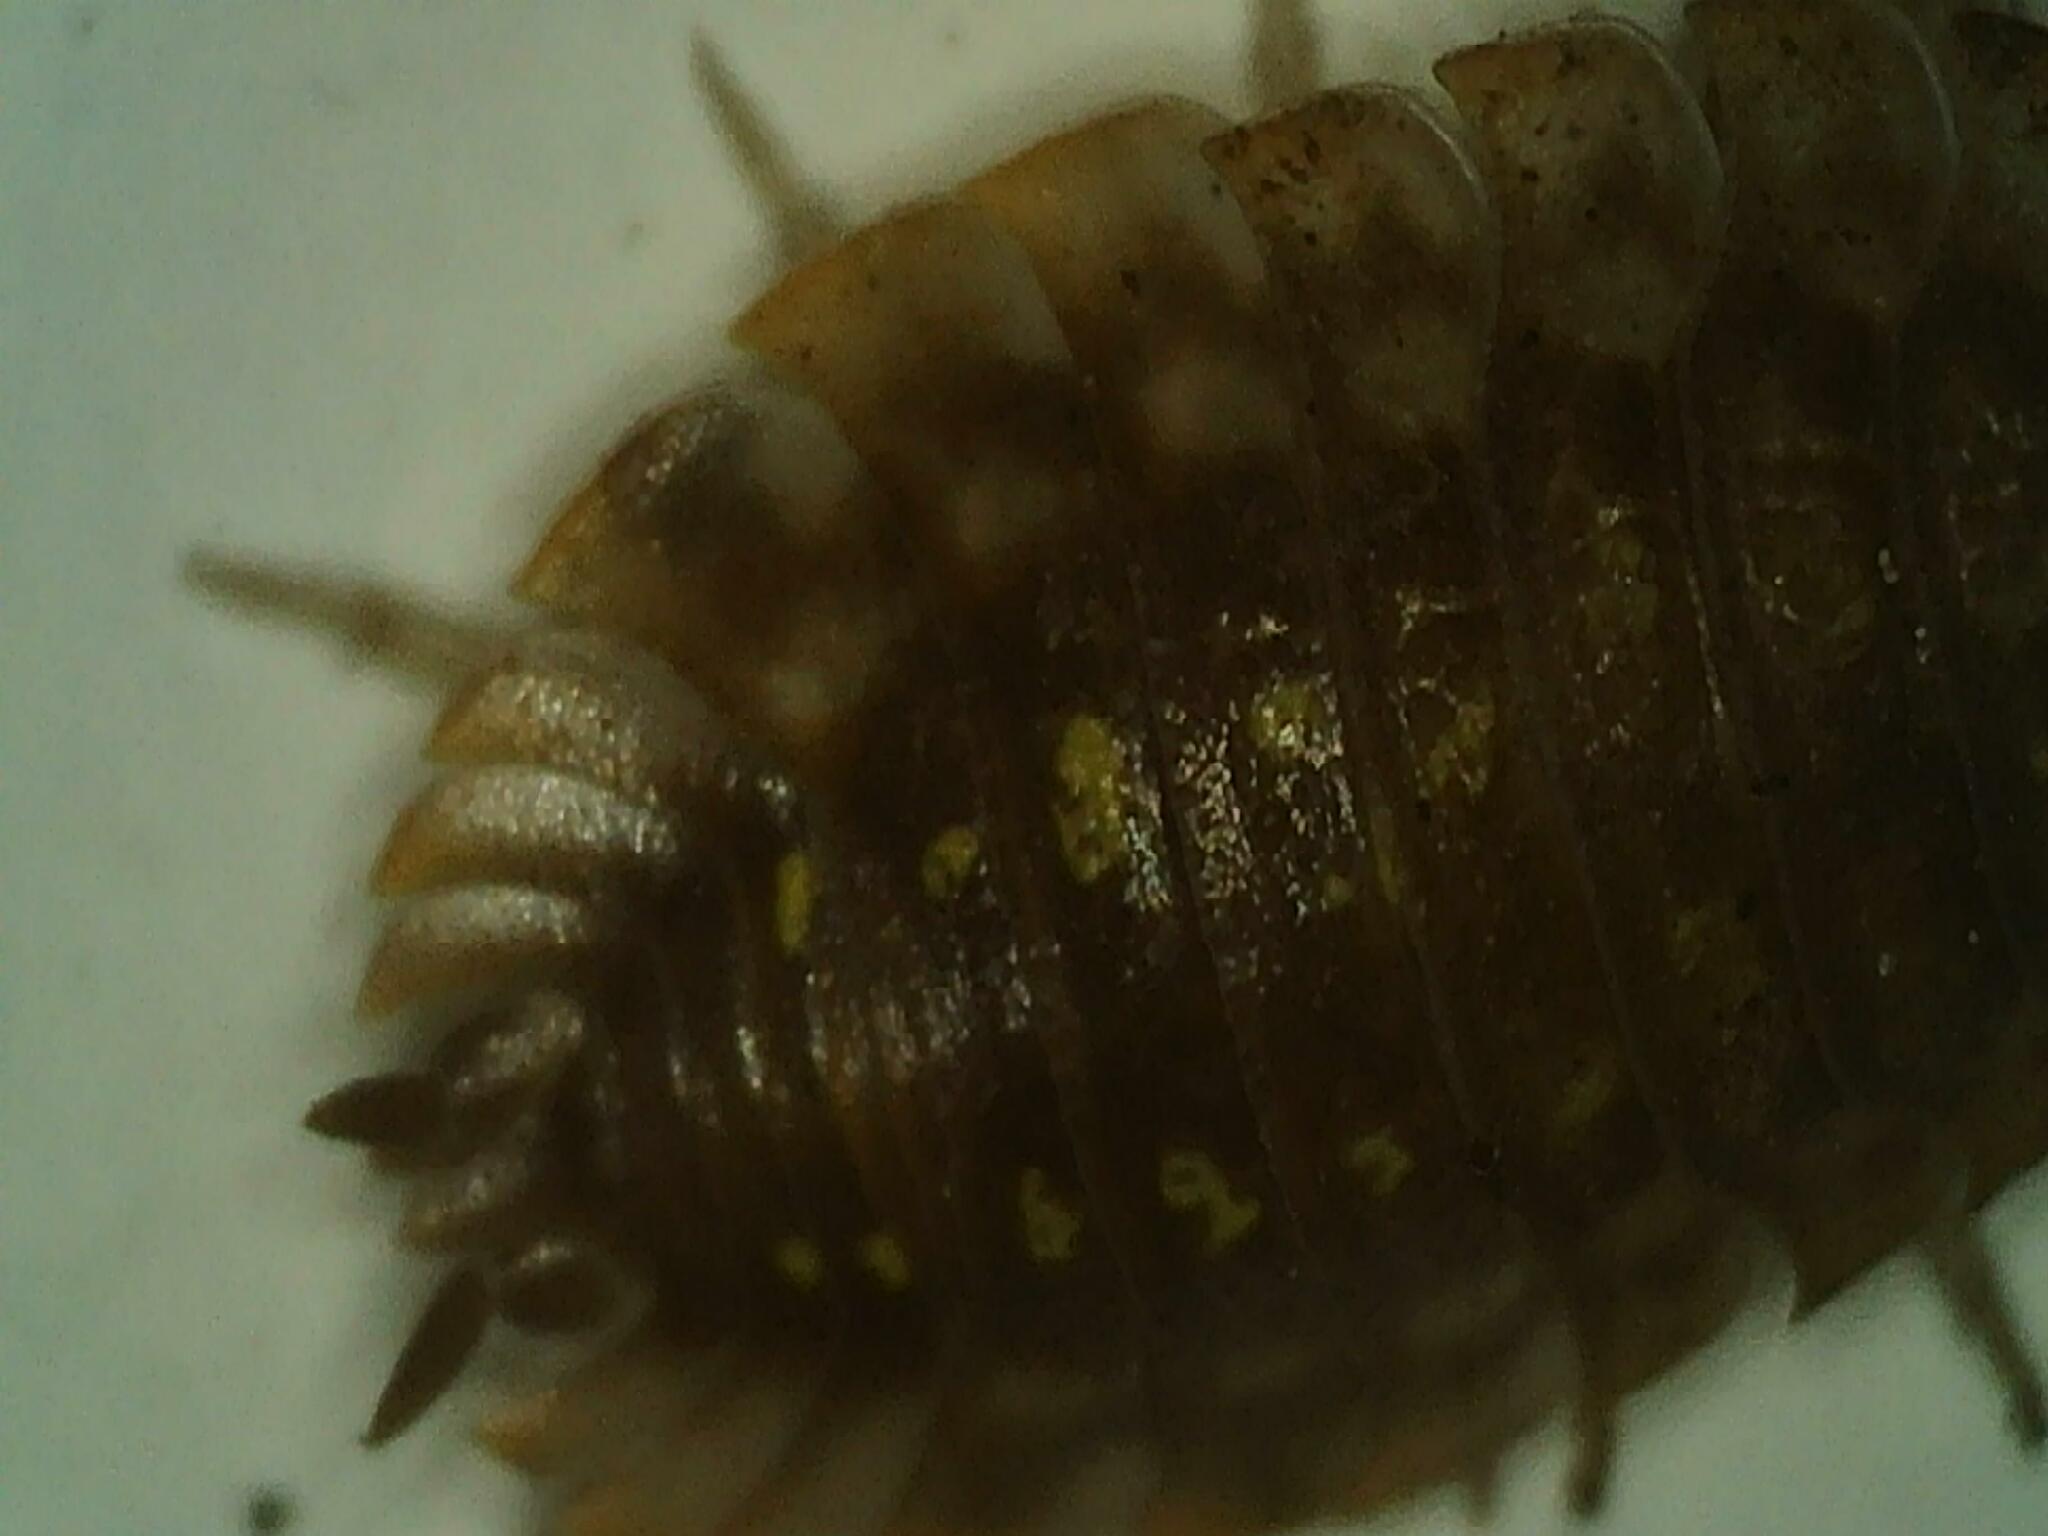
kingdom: Animalia
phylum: Arthropoda
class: Malacostraca
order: Isopoda
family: Oniscidae
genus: Oniscus
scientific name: Oniscus asellus
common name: Common shiny woodlouse
